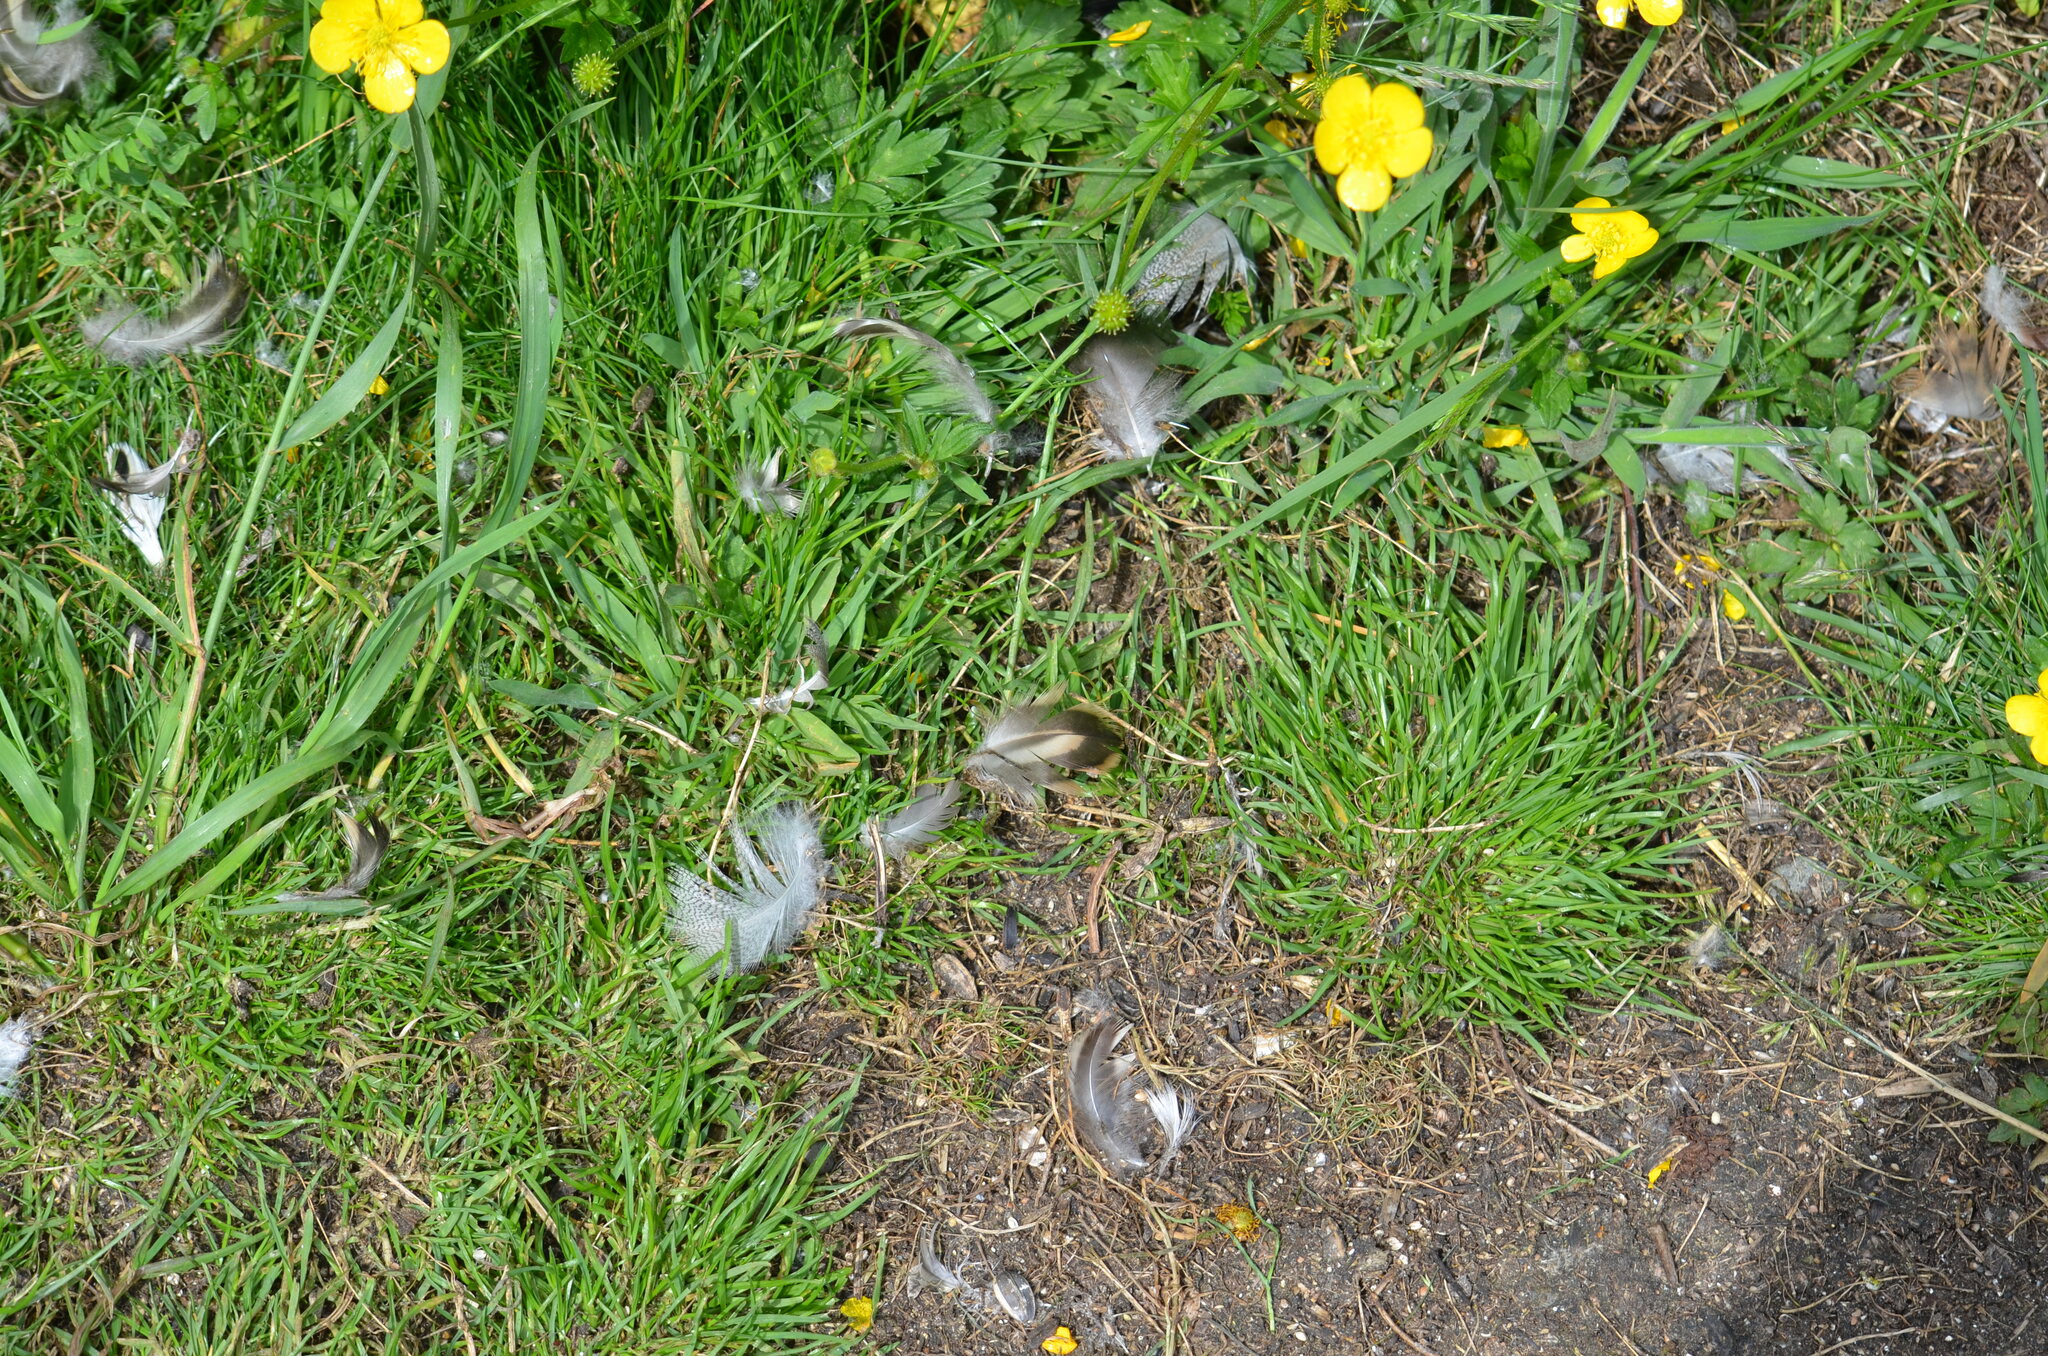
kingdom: Animalia
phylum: Chordata
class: Aves
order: Anseriformes
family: Anatidae
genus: Anas
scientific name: Anas platyrhynchos
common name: Mallard
